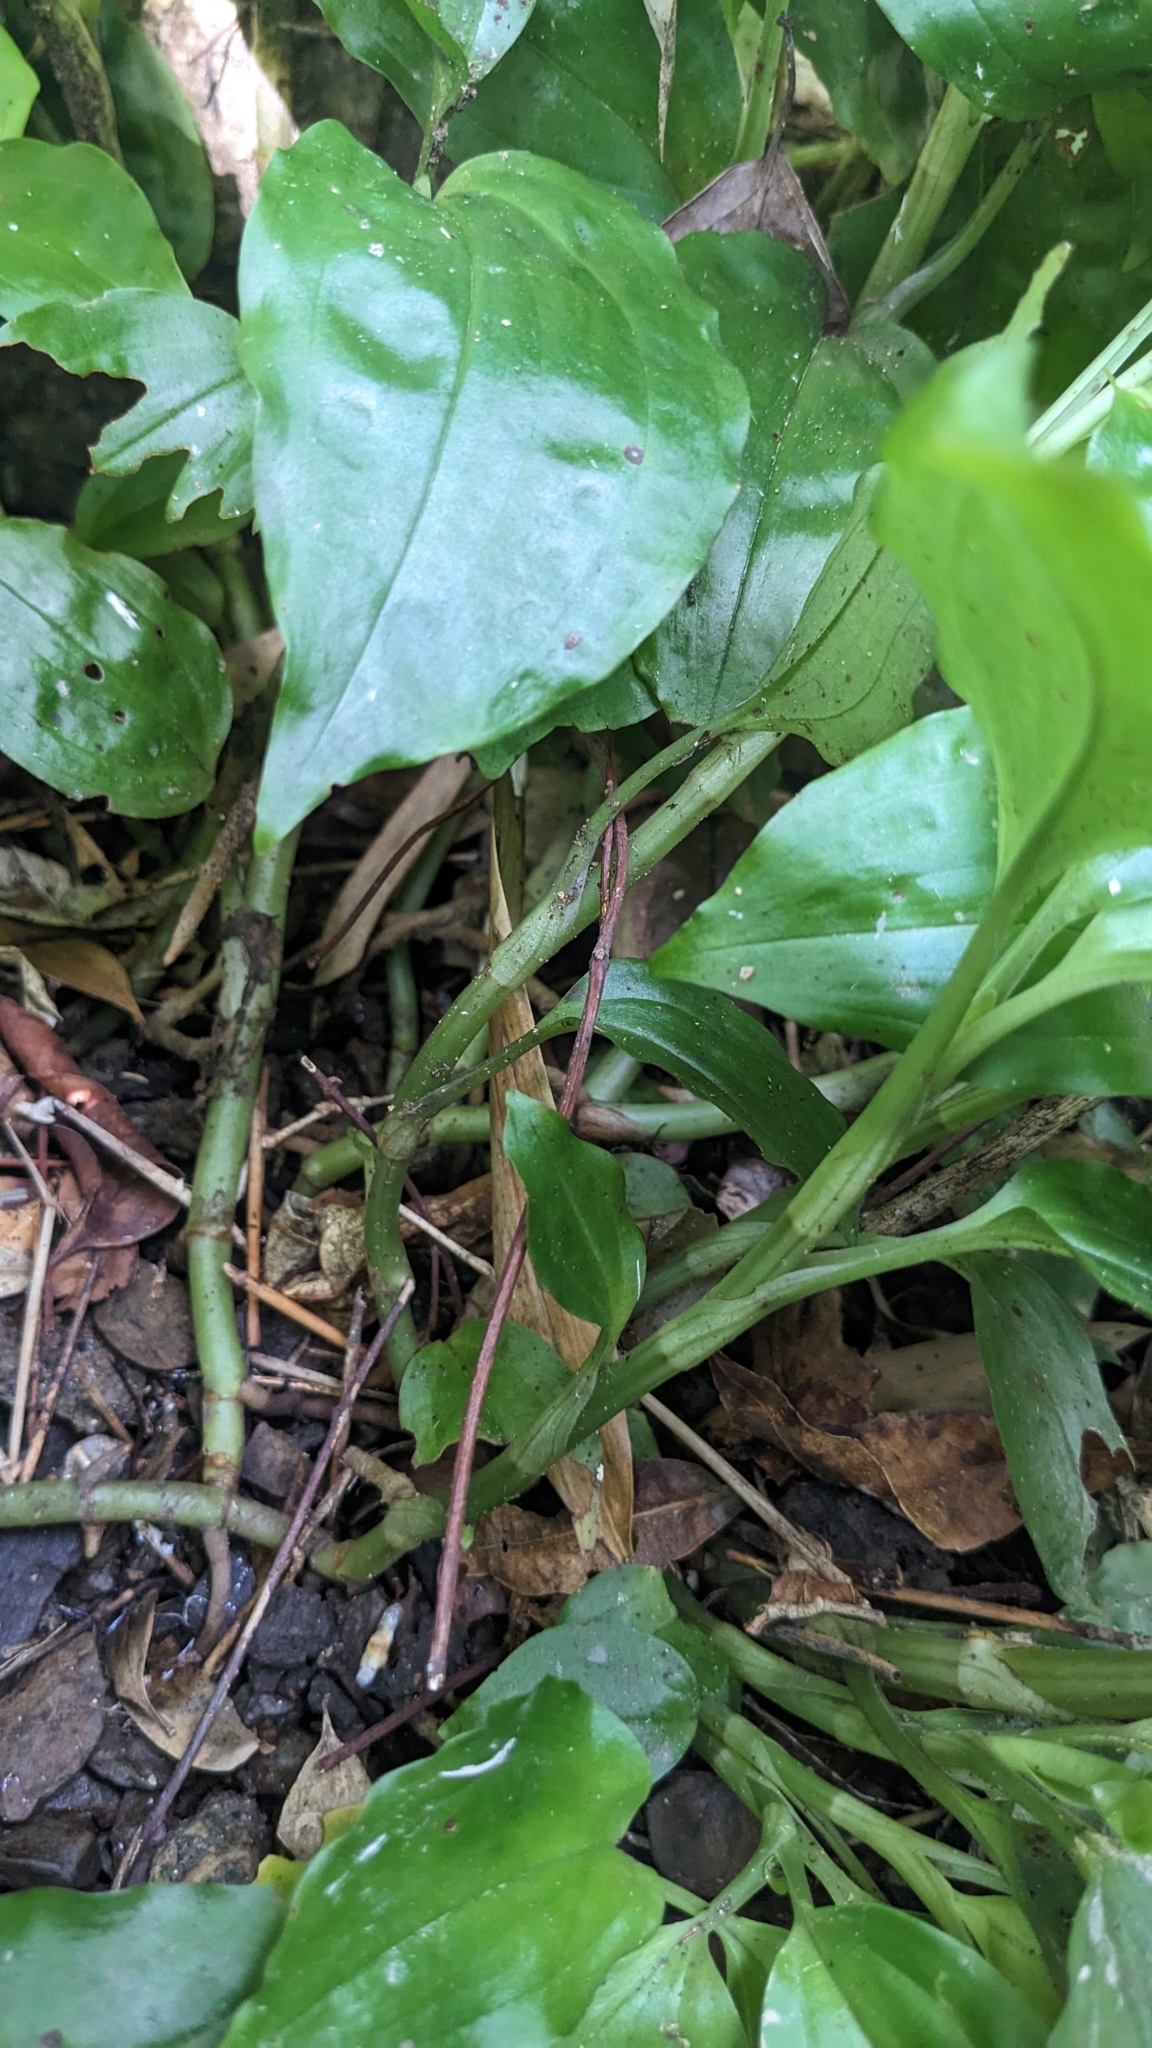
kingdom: Plantae
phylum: Tracheophyta
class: Liliopsida
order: Asparagales
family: Orchidaceae
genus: Goodyera
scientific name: Goodyera rubicunda
